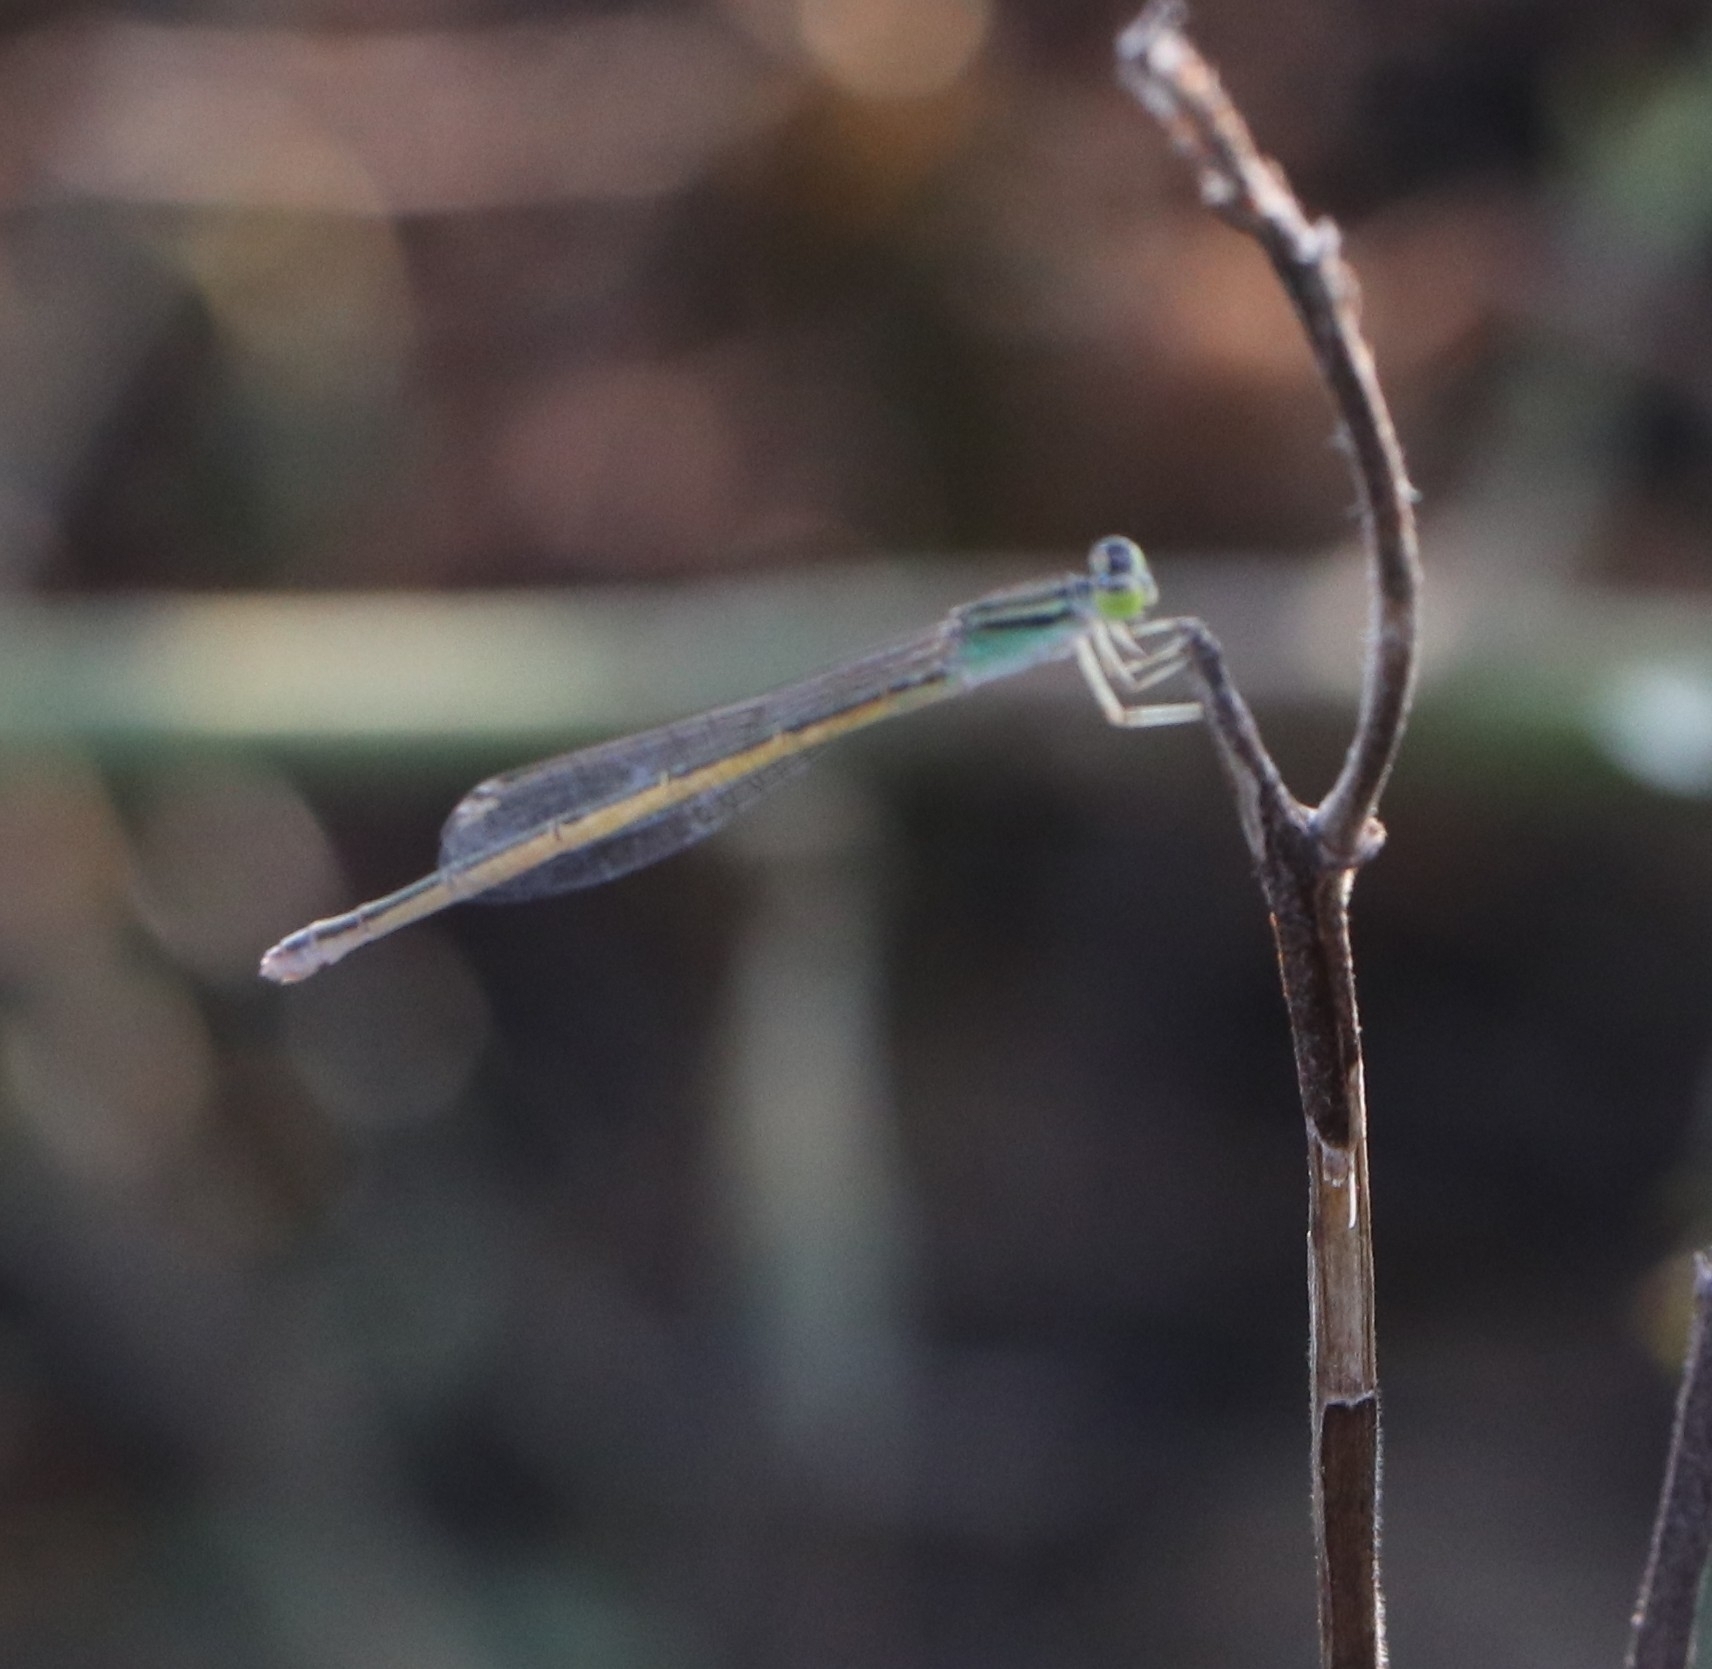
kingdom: Animalia
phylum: Arthropoda
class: Insecta
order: Odonata
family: Coenagrionidae
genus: Ischnura
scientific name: Ischnura rubilio
